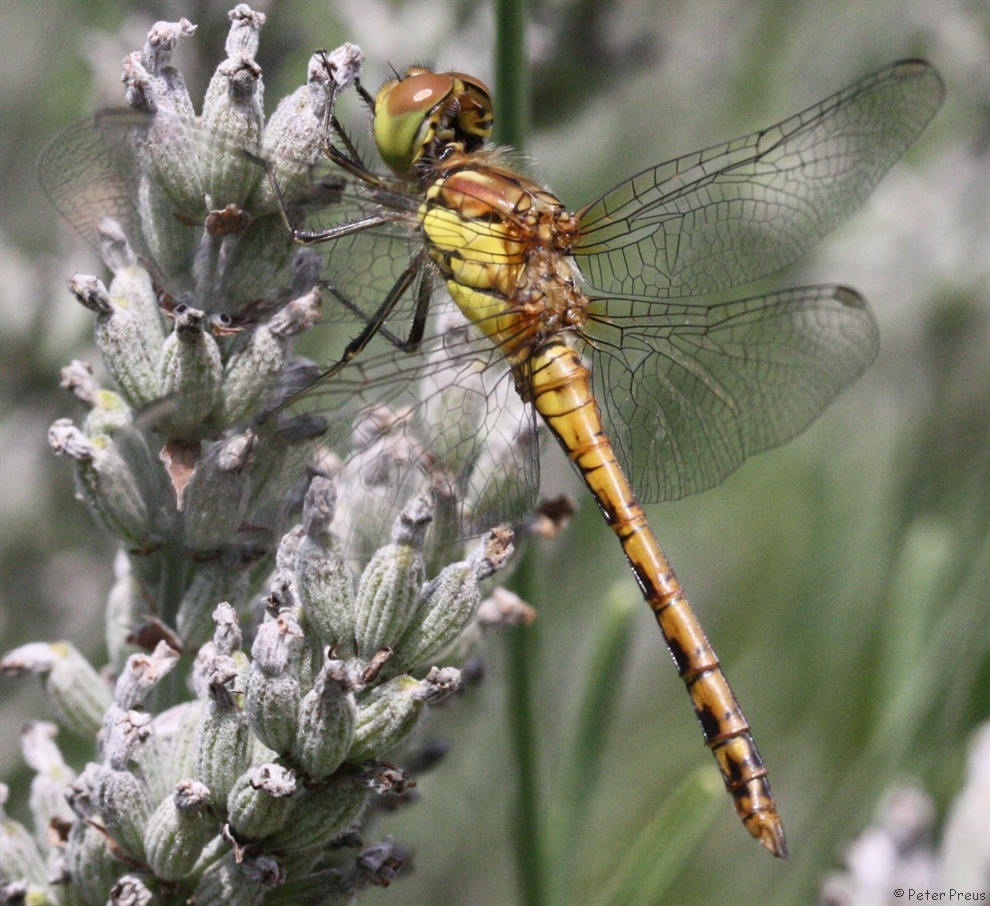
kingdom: Animalia
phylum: Arthropoda
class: Insecta
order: Odonata
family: Libellulidae
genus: Sympetrum
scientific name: Sympetrum striolatum
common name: Common darter
